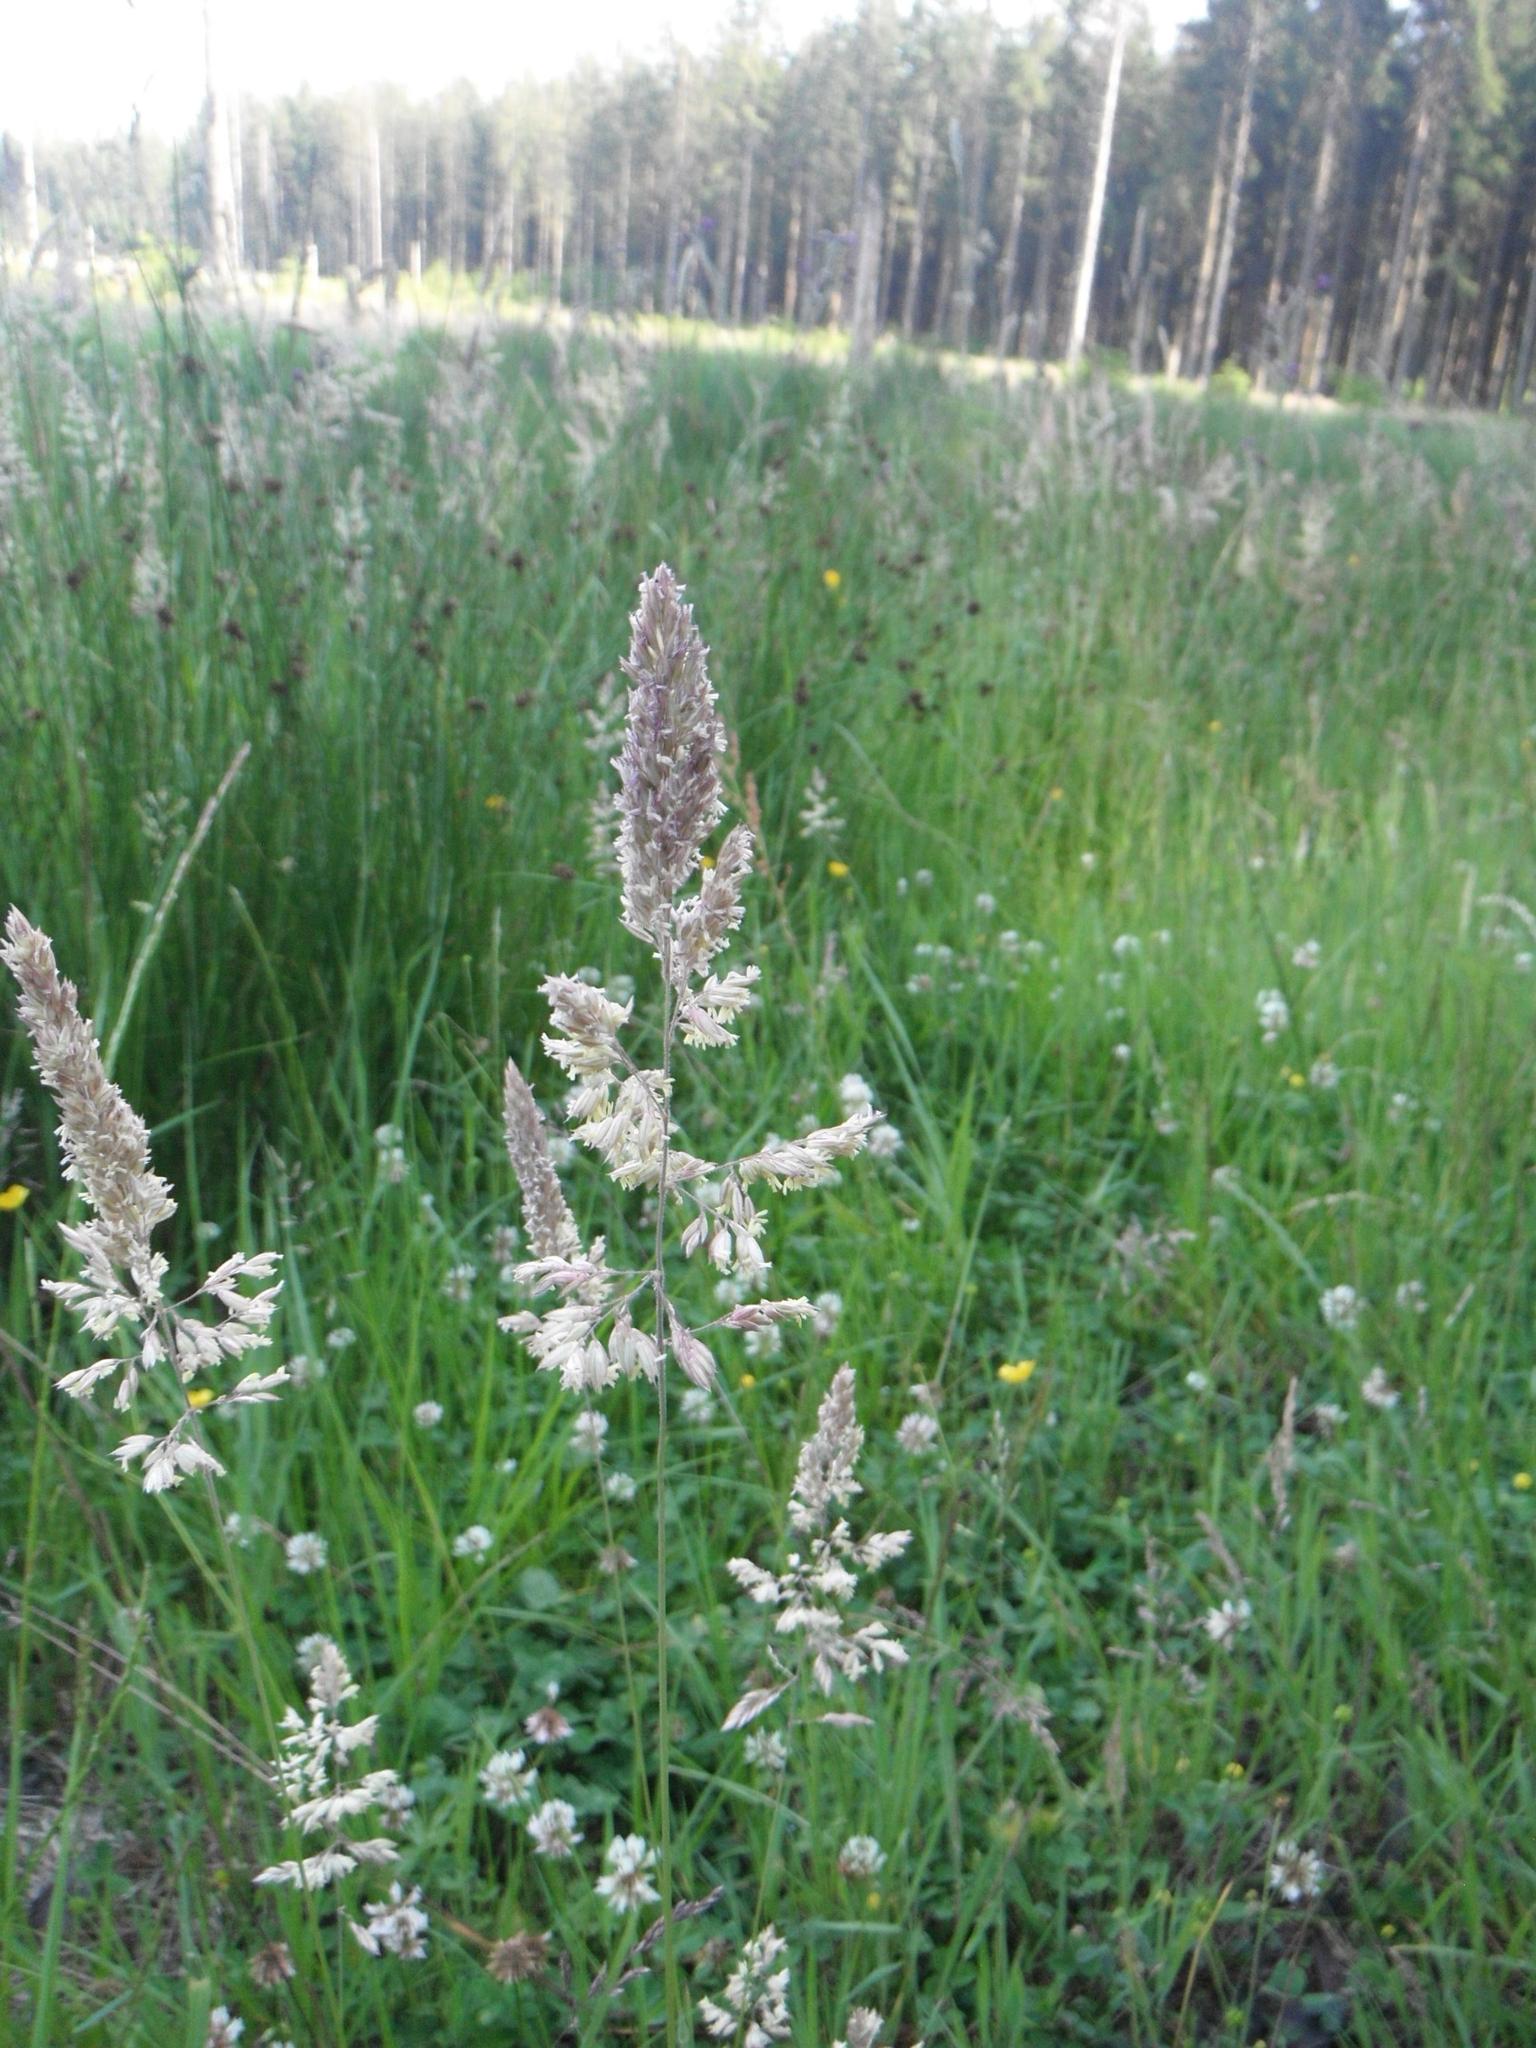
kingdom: Plantae
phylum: Tracheophyta
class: Liliopsida
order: Poales
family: Poaceae
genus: Holcus
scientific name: Holcus lanatus
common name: Yorkshire-fog
